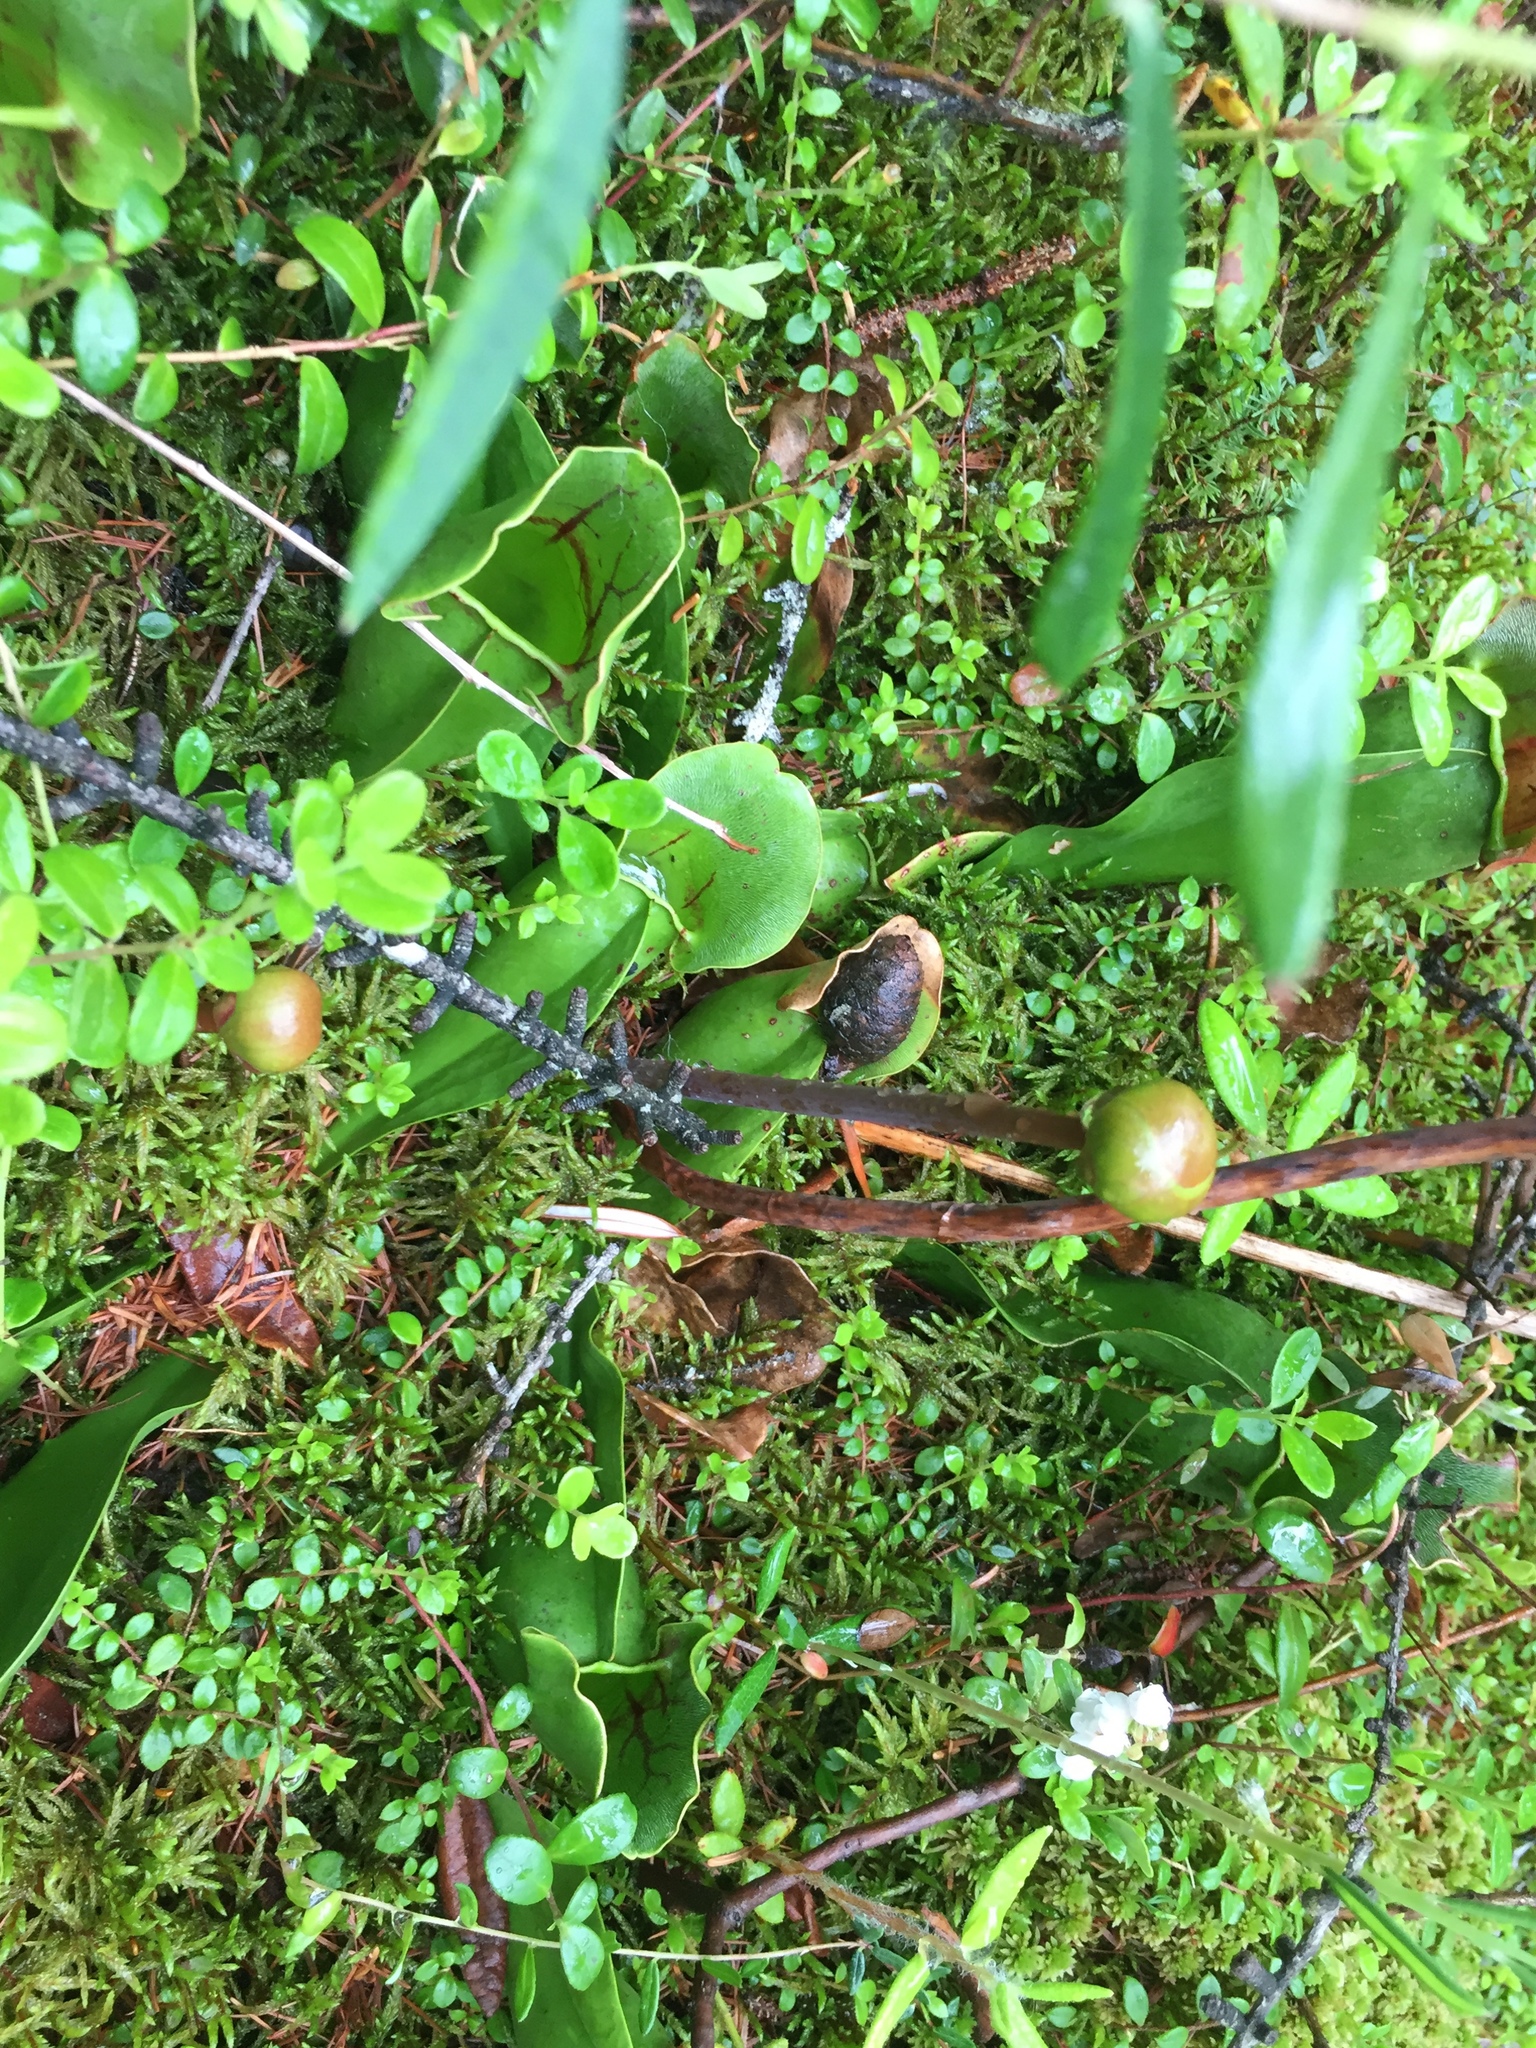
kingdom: Plantae
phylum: Tracheophyta
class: Magnoliopsida
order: Ericales
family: Sarraceniaceae
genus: Sarracenia
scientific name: Sarracenia purpurea
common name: Pitcherplant
